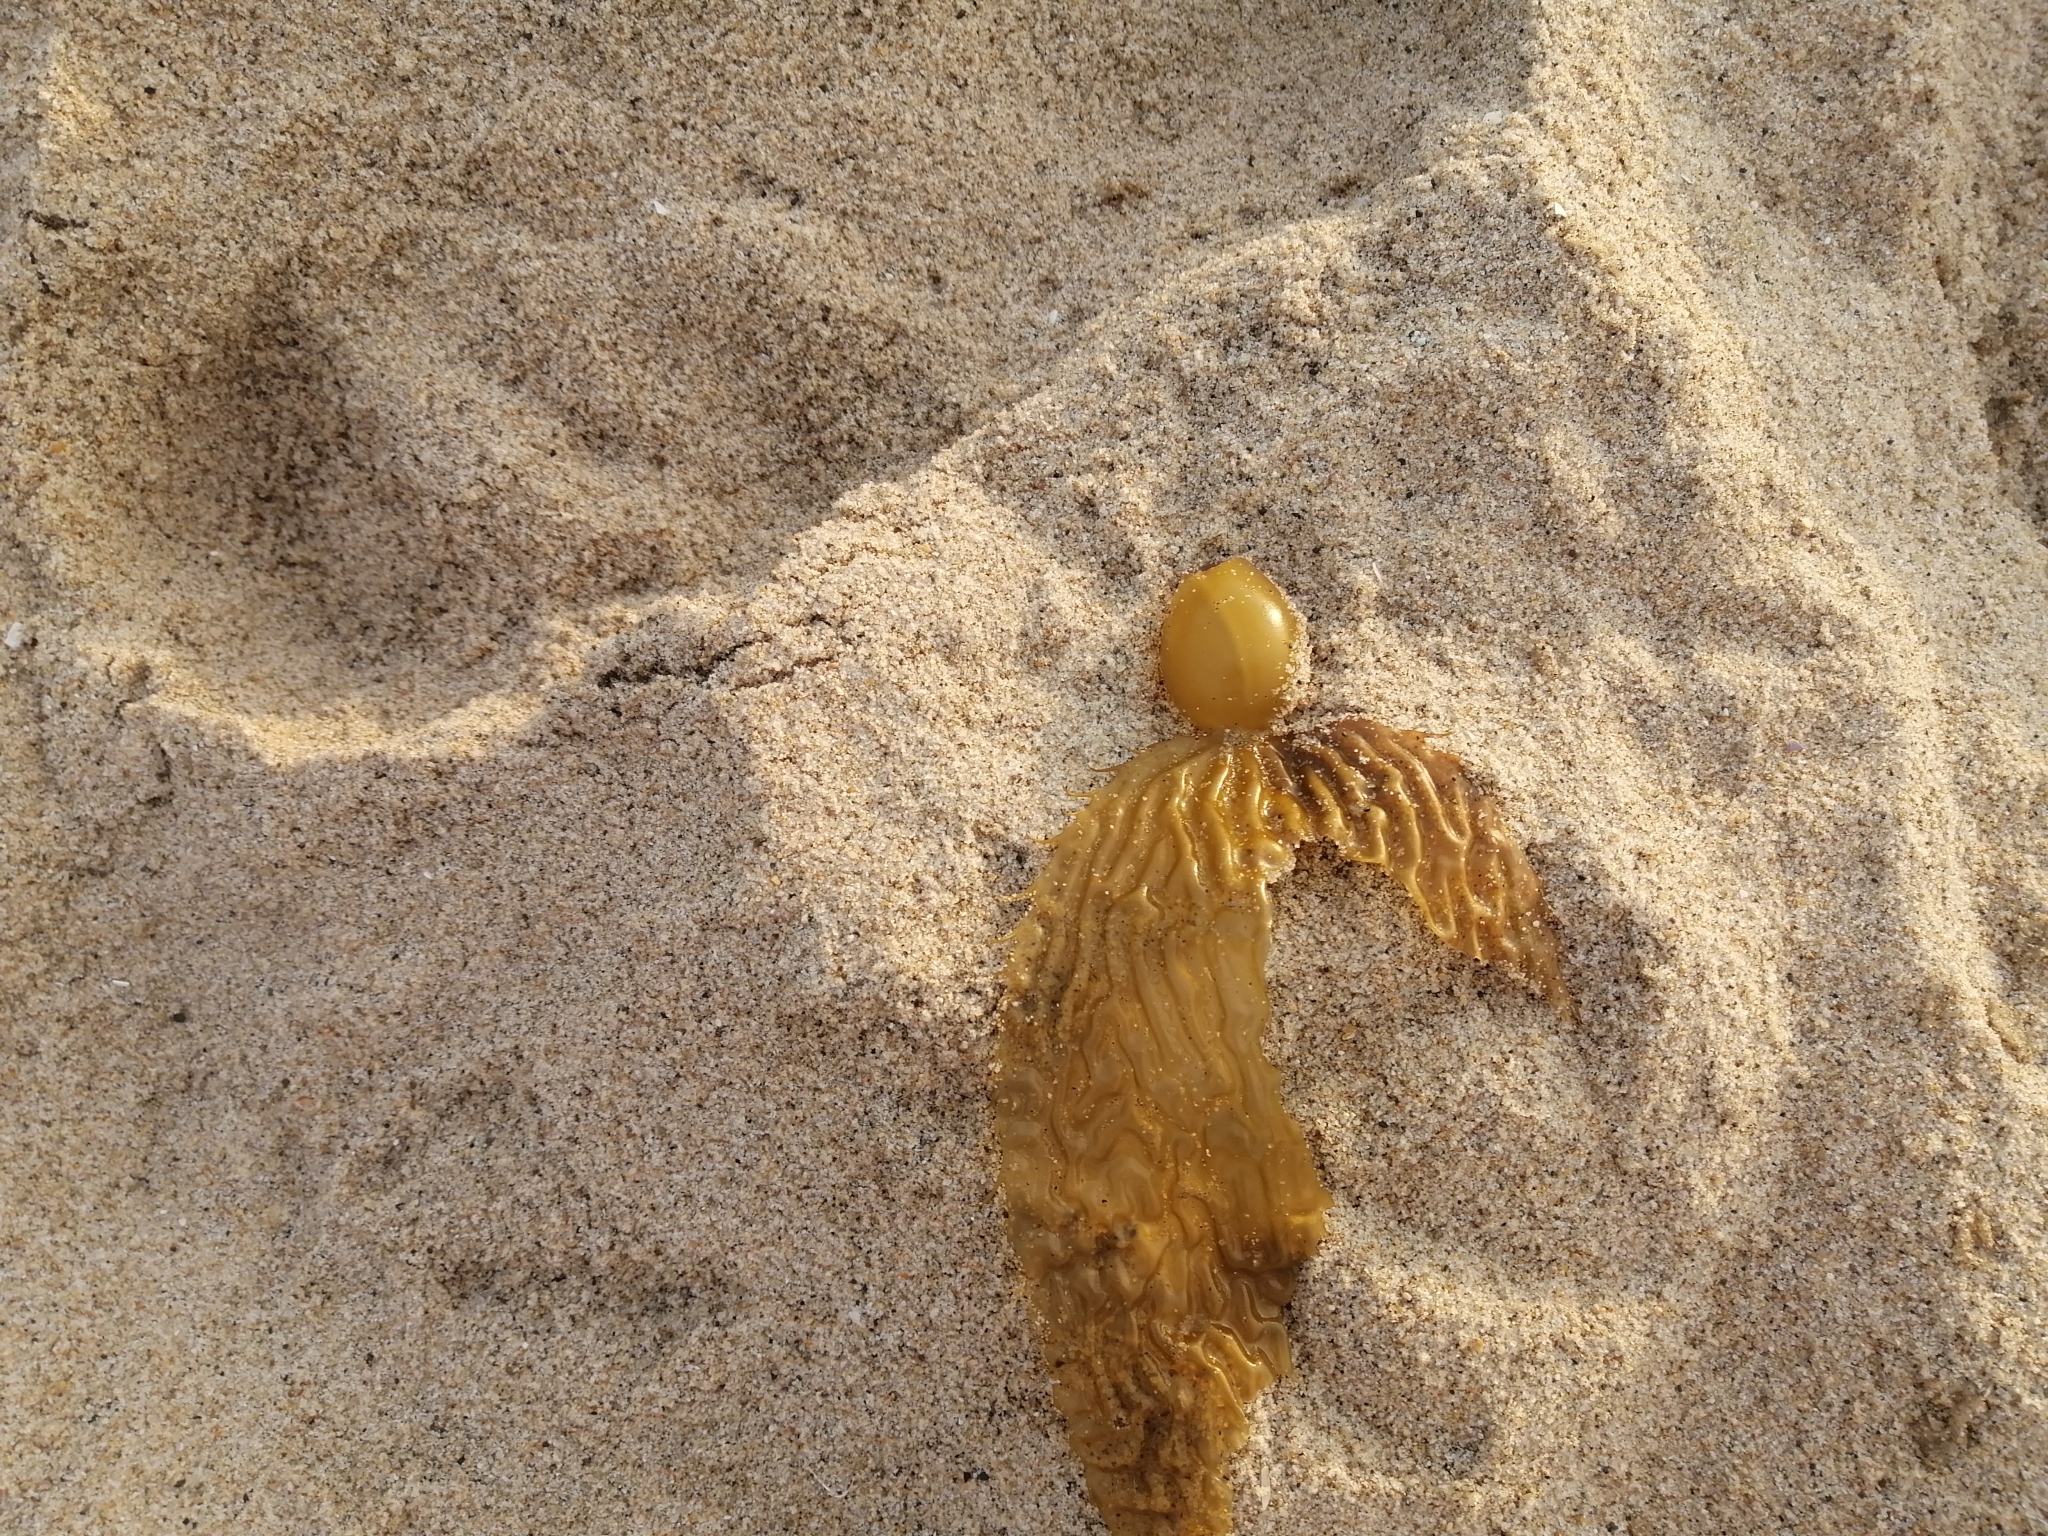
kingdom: Chromista
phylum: Ochrophyta
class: Phaeophyceae
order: Laminariales
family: Laminariaceae
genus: Macrocystis
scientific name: Macrocystis pyrifera
